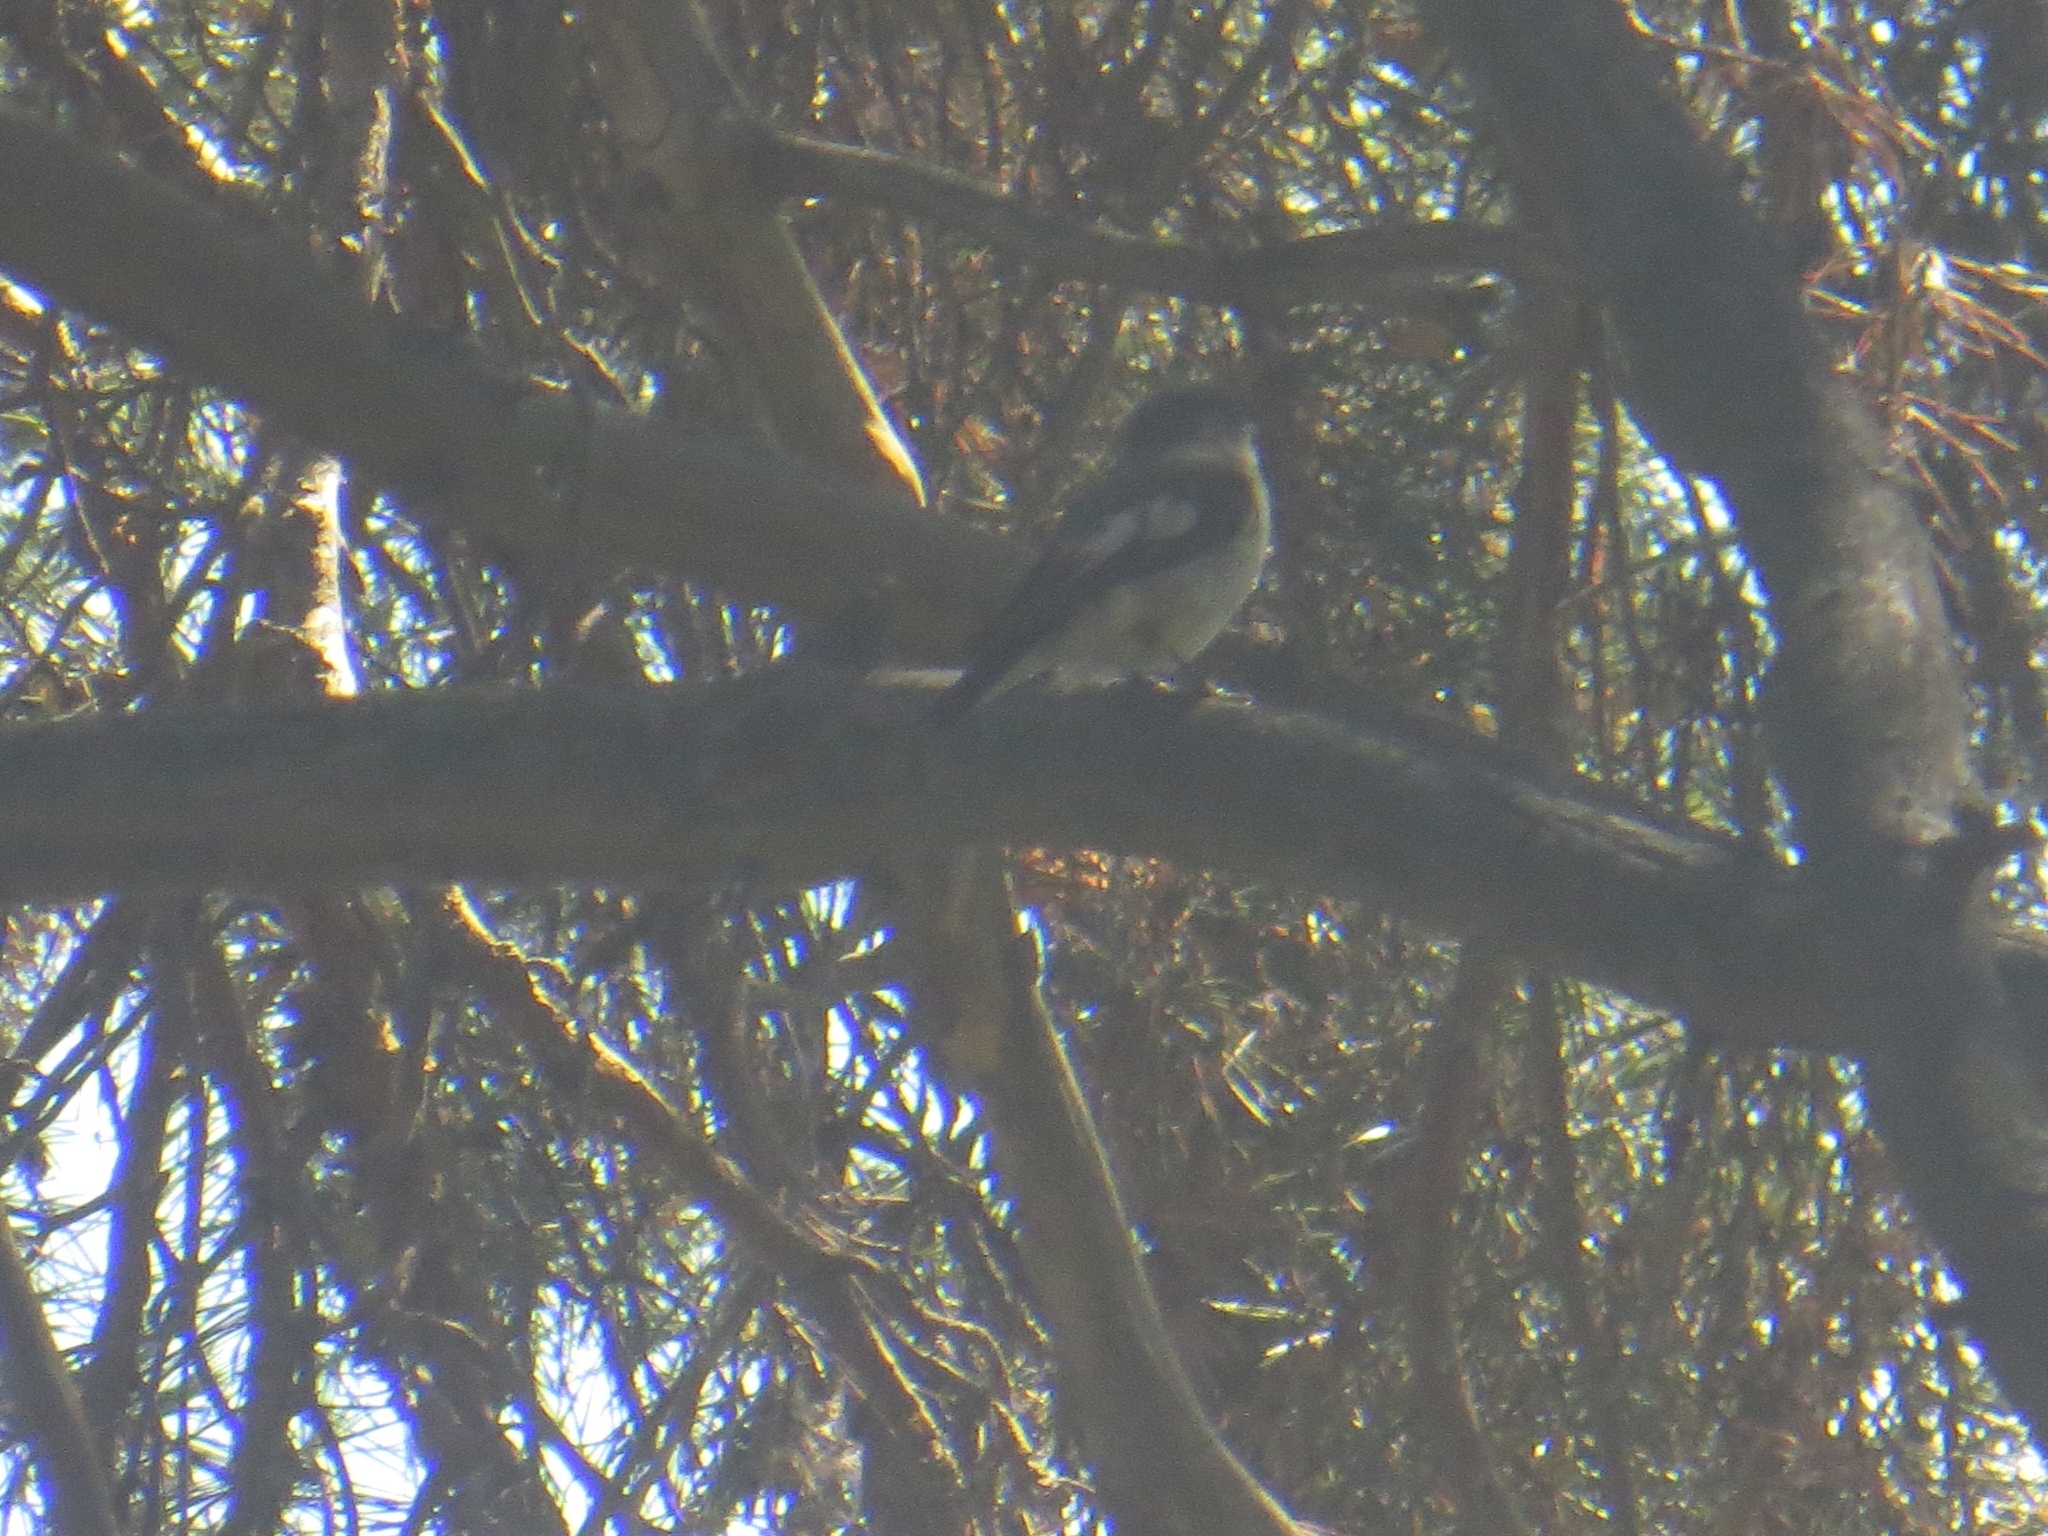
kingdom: Animalia
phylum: Chordata
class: Aves
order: Passeriformes
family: Muscicapidae
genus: Ficedula
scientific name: Ficedula hypoleuca
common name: European pied flycatcher
